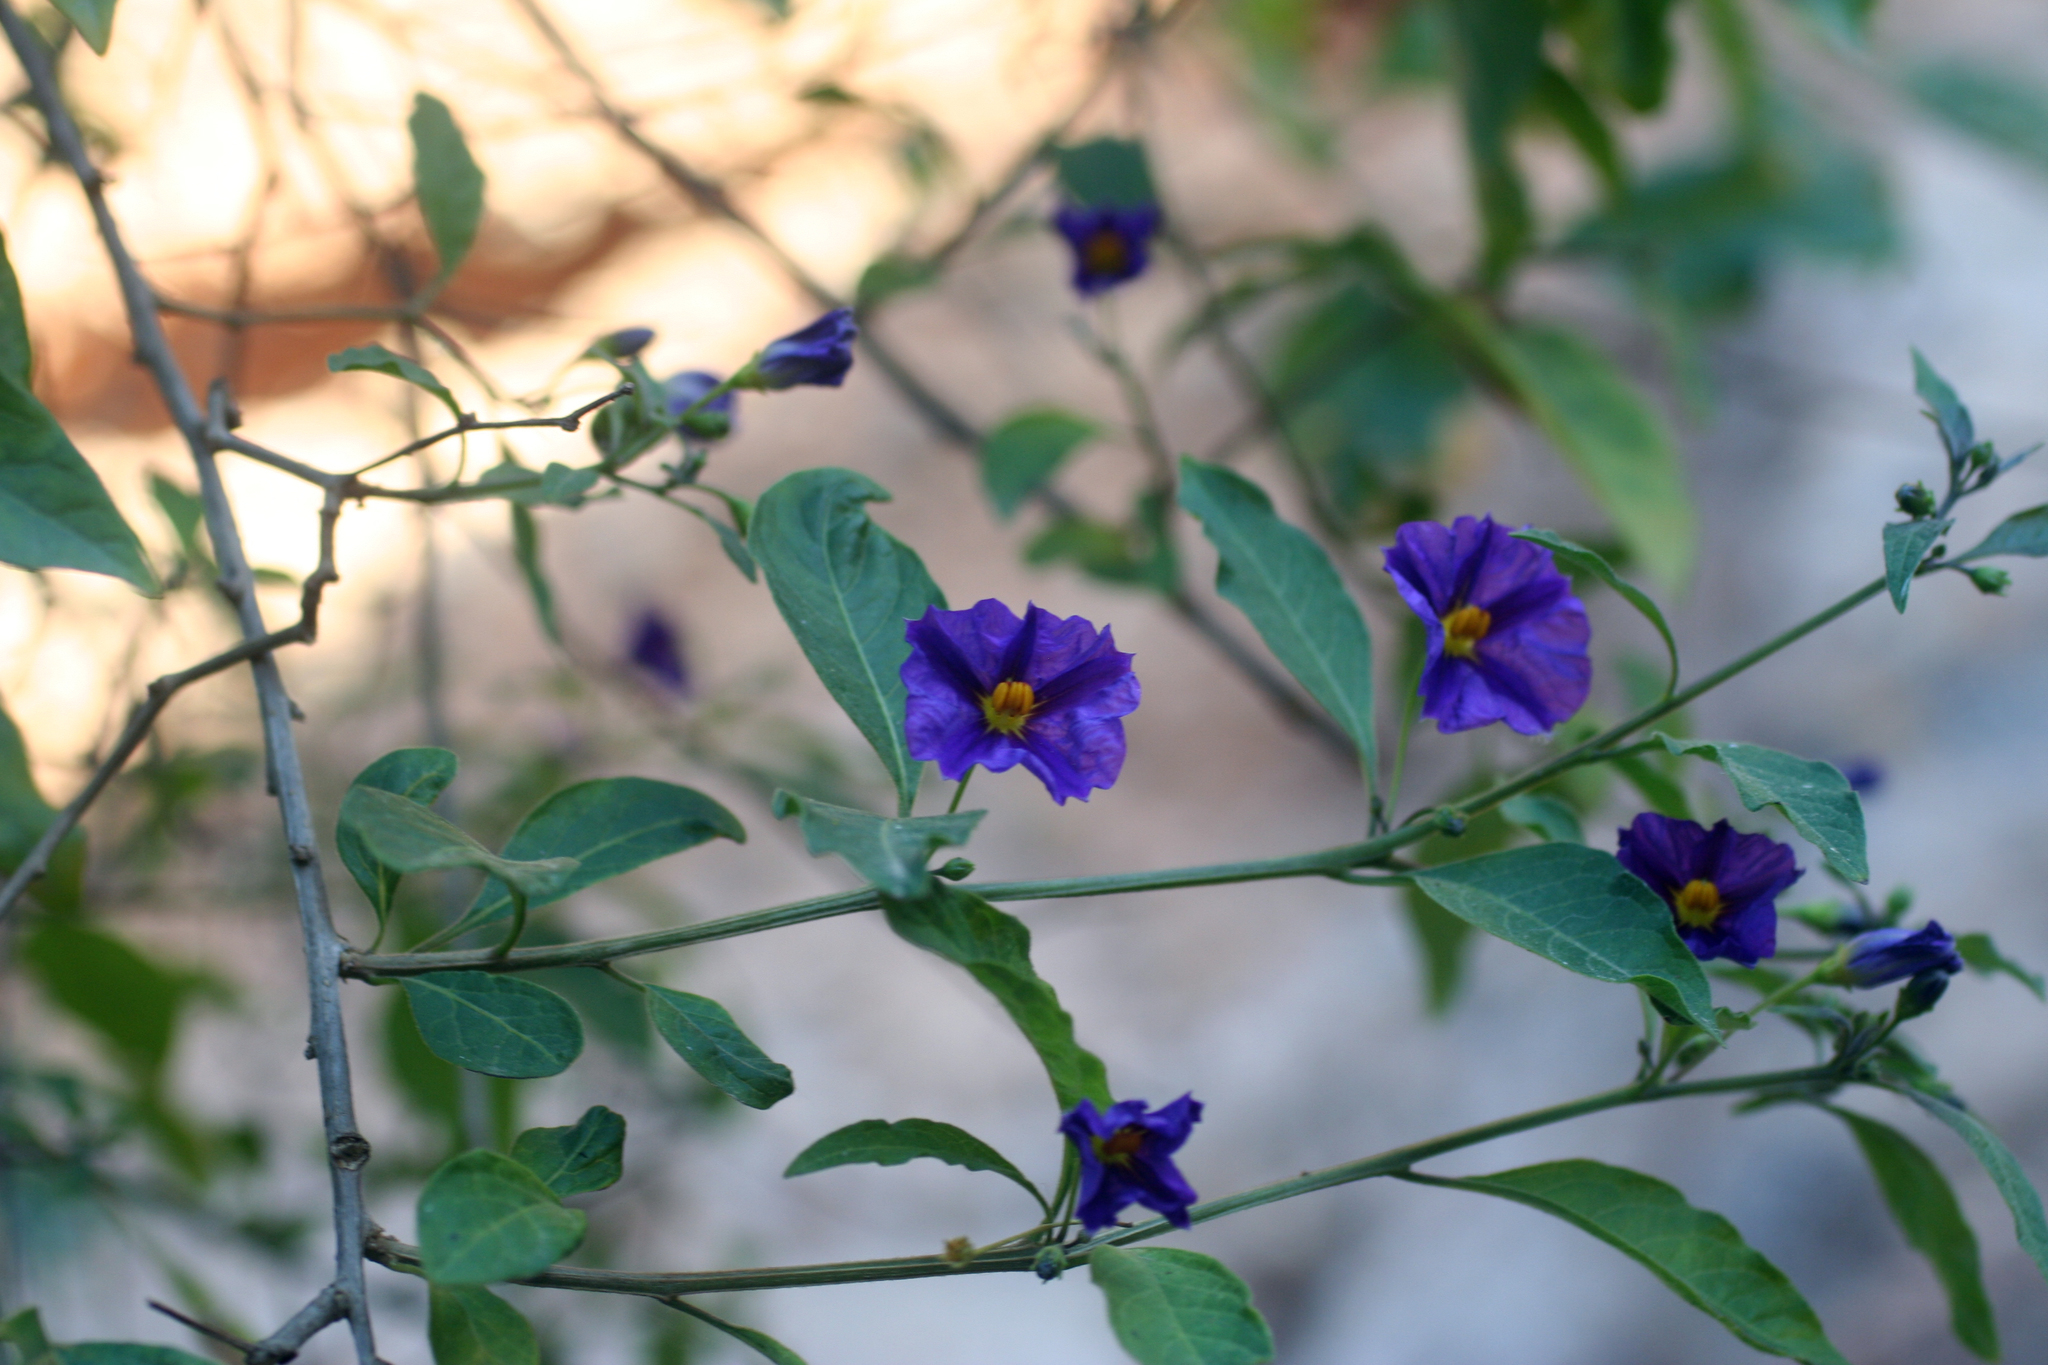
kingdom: Plantae
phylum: Tracheophyta
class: Magnoliopsida
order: Solanales
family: Solanaceae
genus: Lycianthes
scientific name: Lycianthes rantonnetii
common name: Blue potatobush
